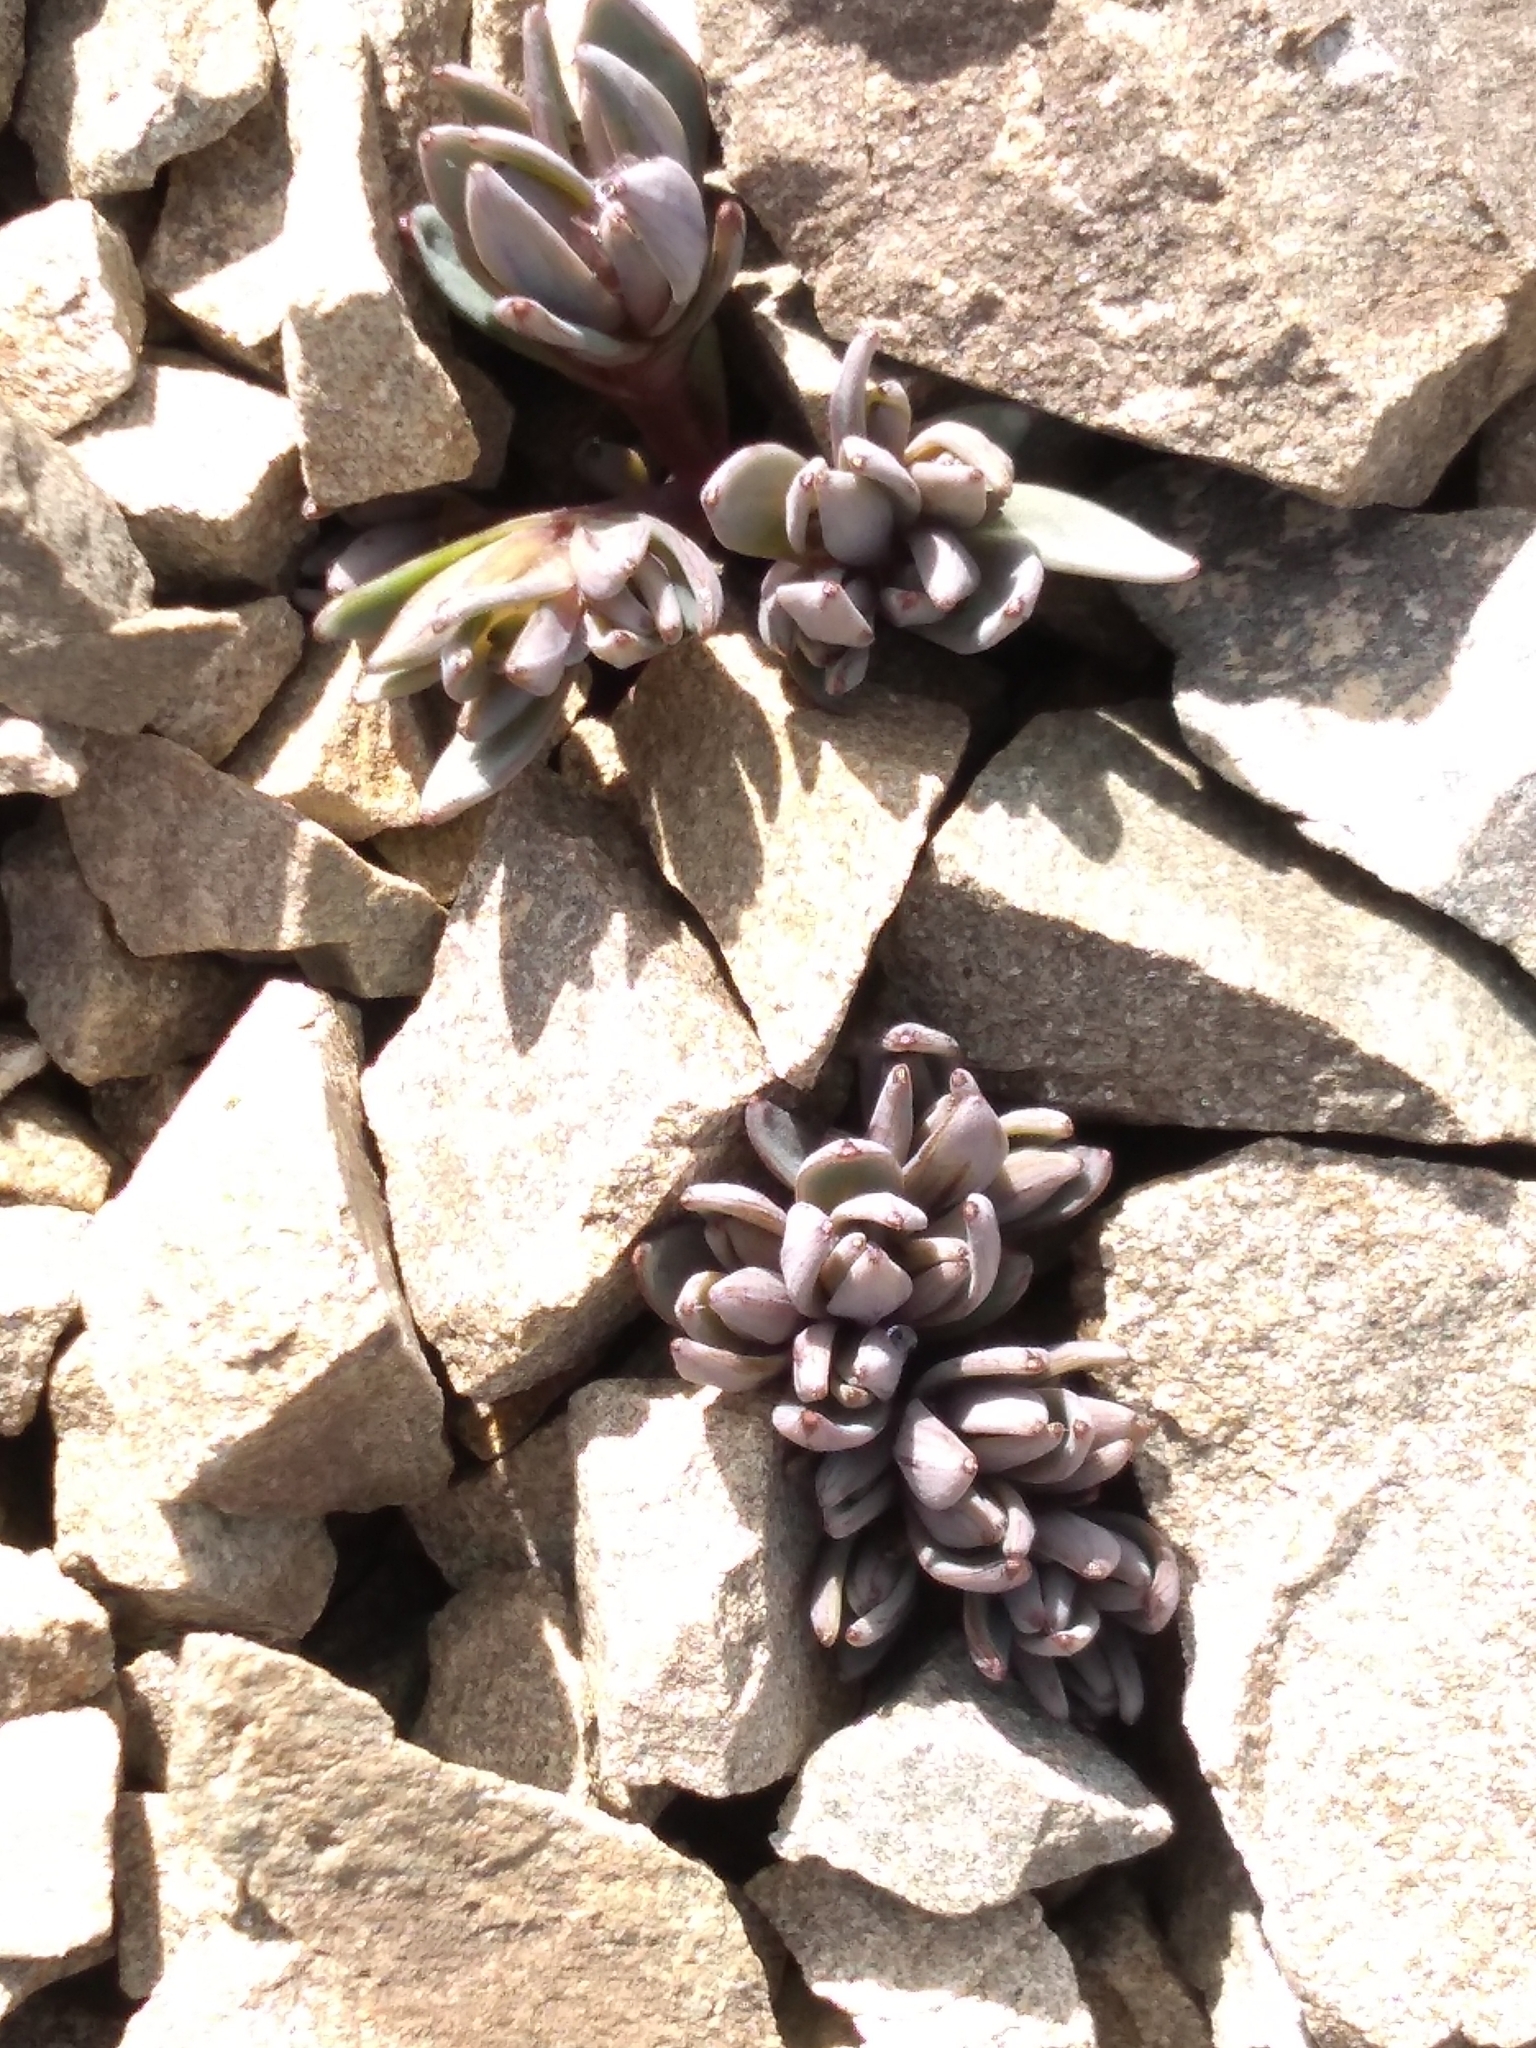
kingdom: Plantae
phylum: Tracheophyta
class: Magnoliopsida
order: Caryophyllales
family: Caryophyllaceae
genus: Stellaria
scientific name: Stellaria roughii
